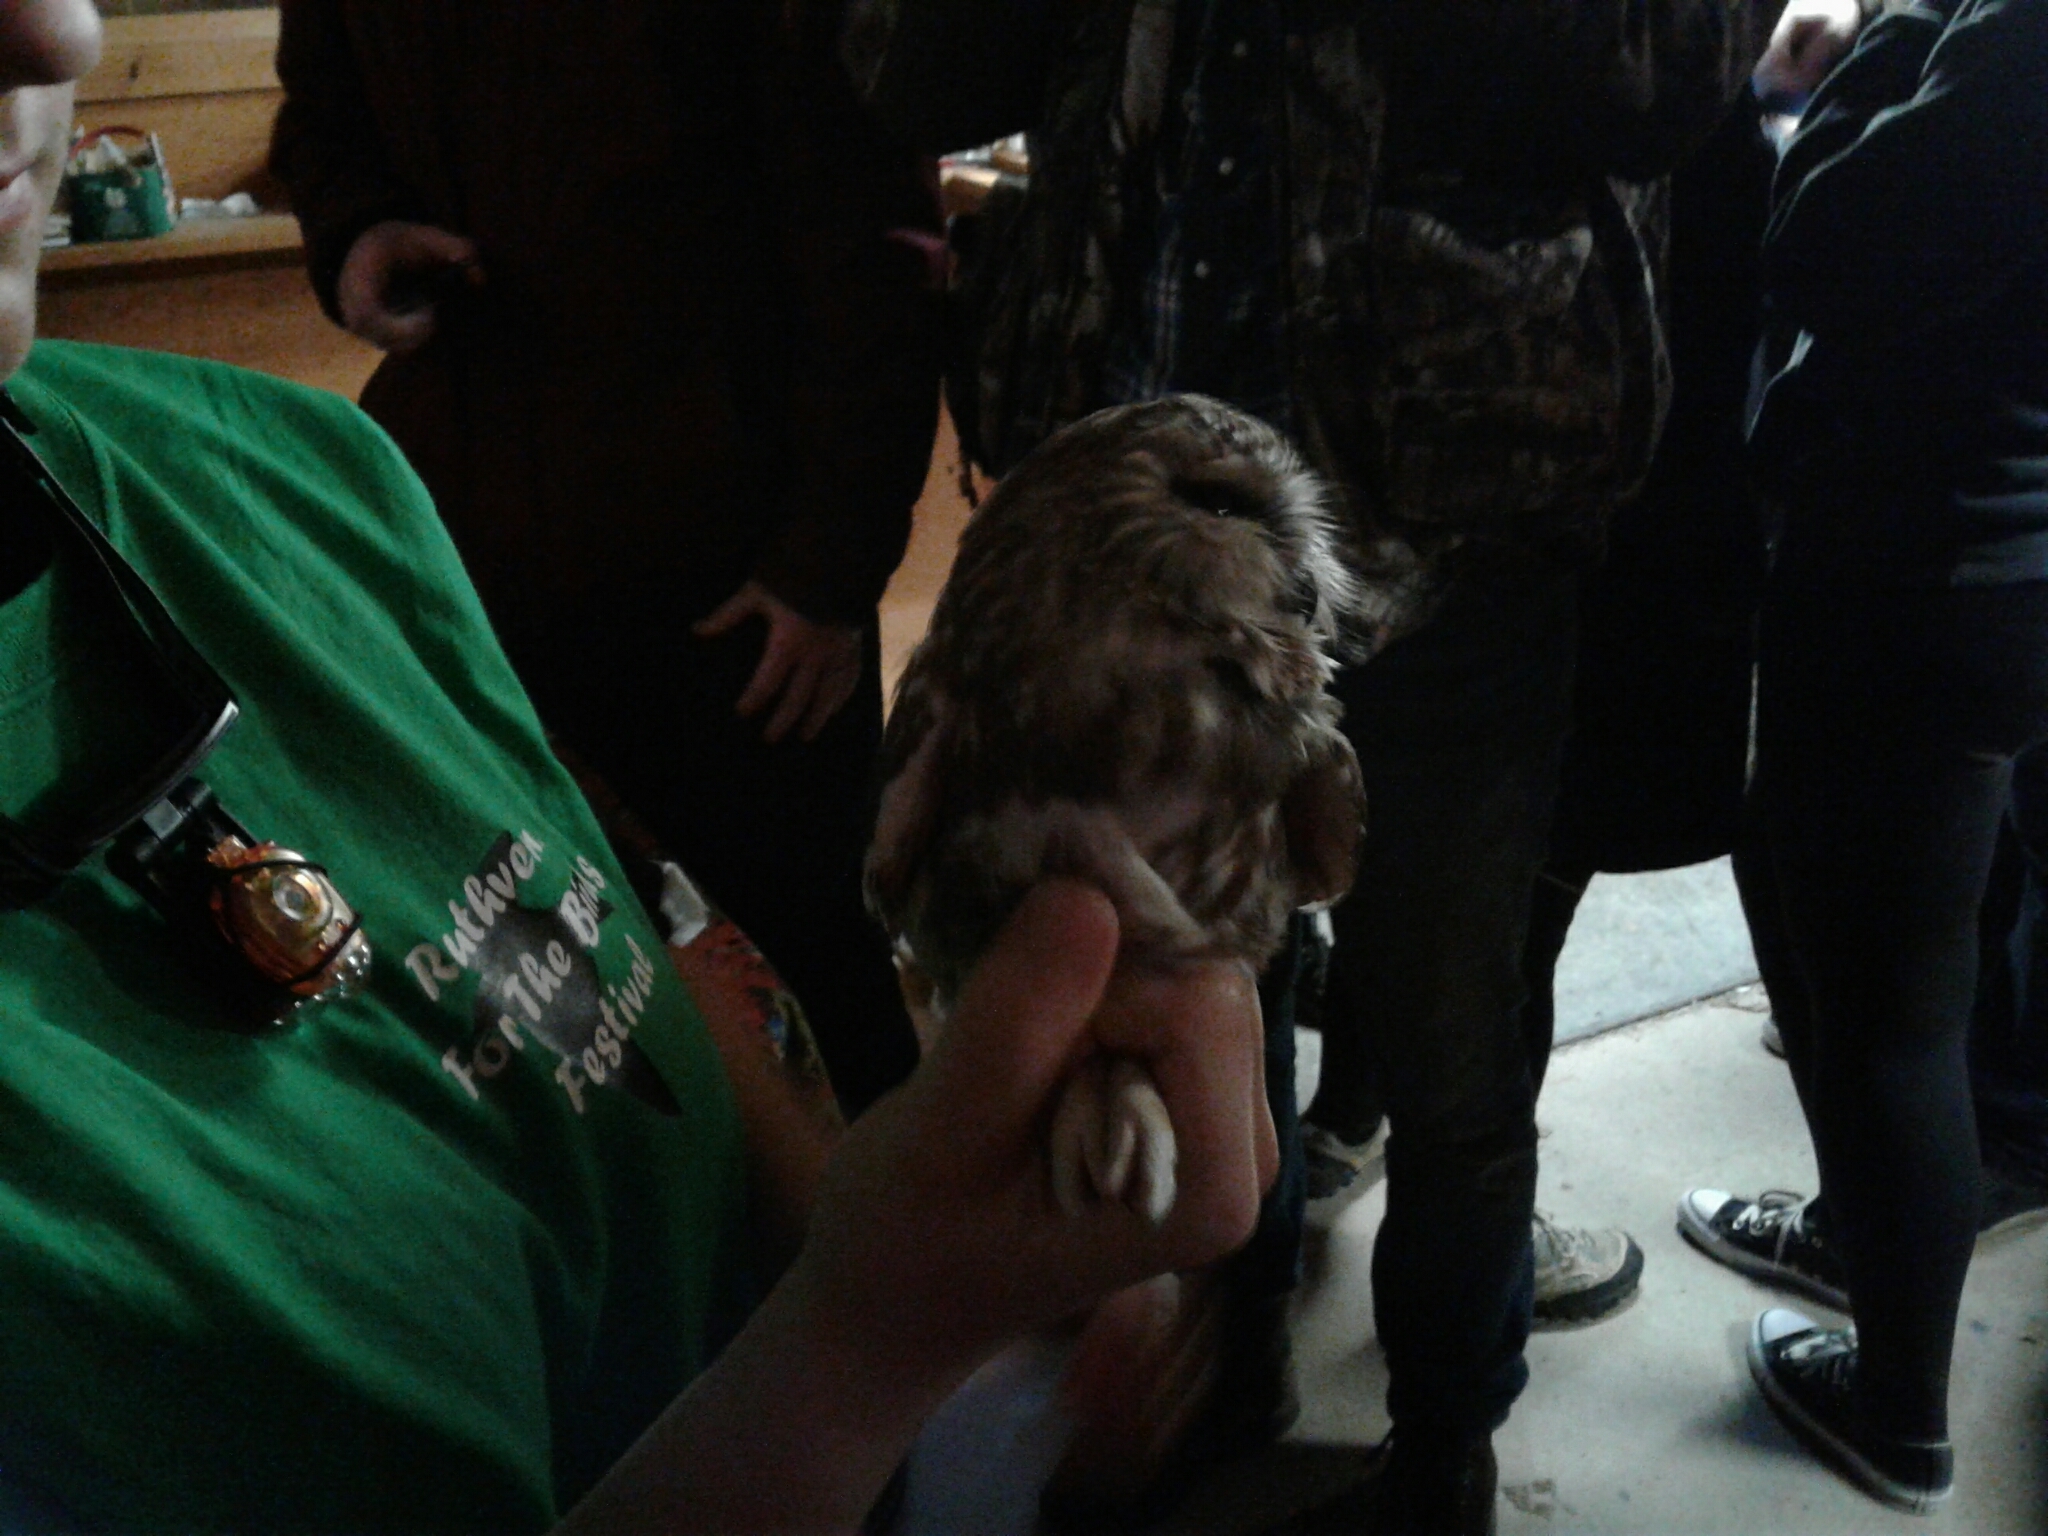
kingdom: Animalia
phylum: Chordata
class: Aves
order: Strigiformes
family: Strigidae
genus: Aegolius
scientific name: Aegolius acadicus
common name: Northern saw-whet owl
